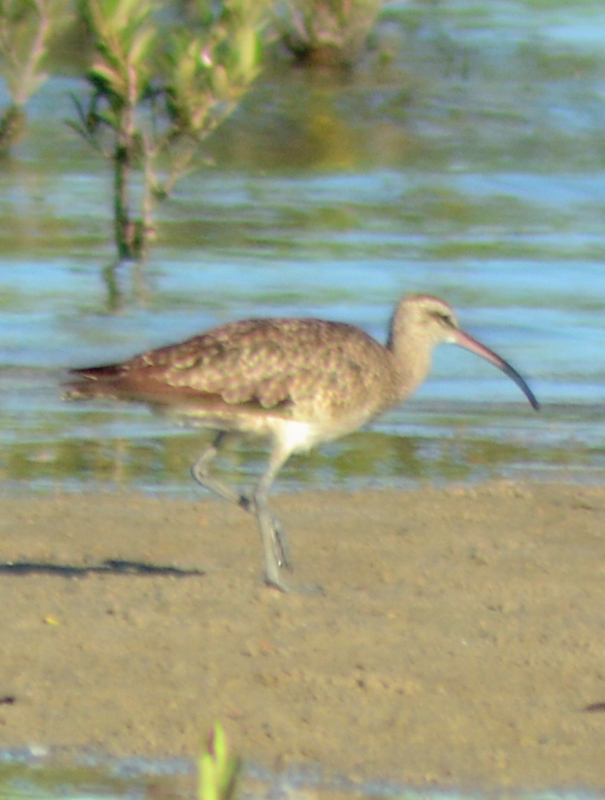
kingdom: Animalia
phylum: Chordata
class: Aves
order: Charadriiformes
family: Scolopacidae
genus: Numenius
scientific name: Numenius phaeopus
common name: Whimbrel
